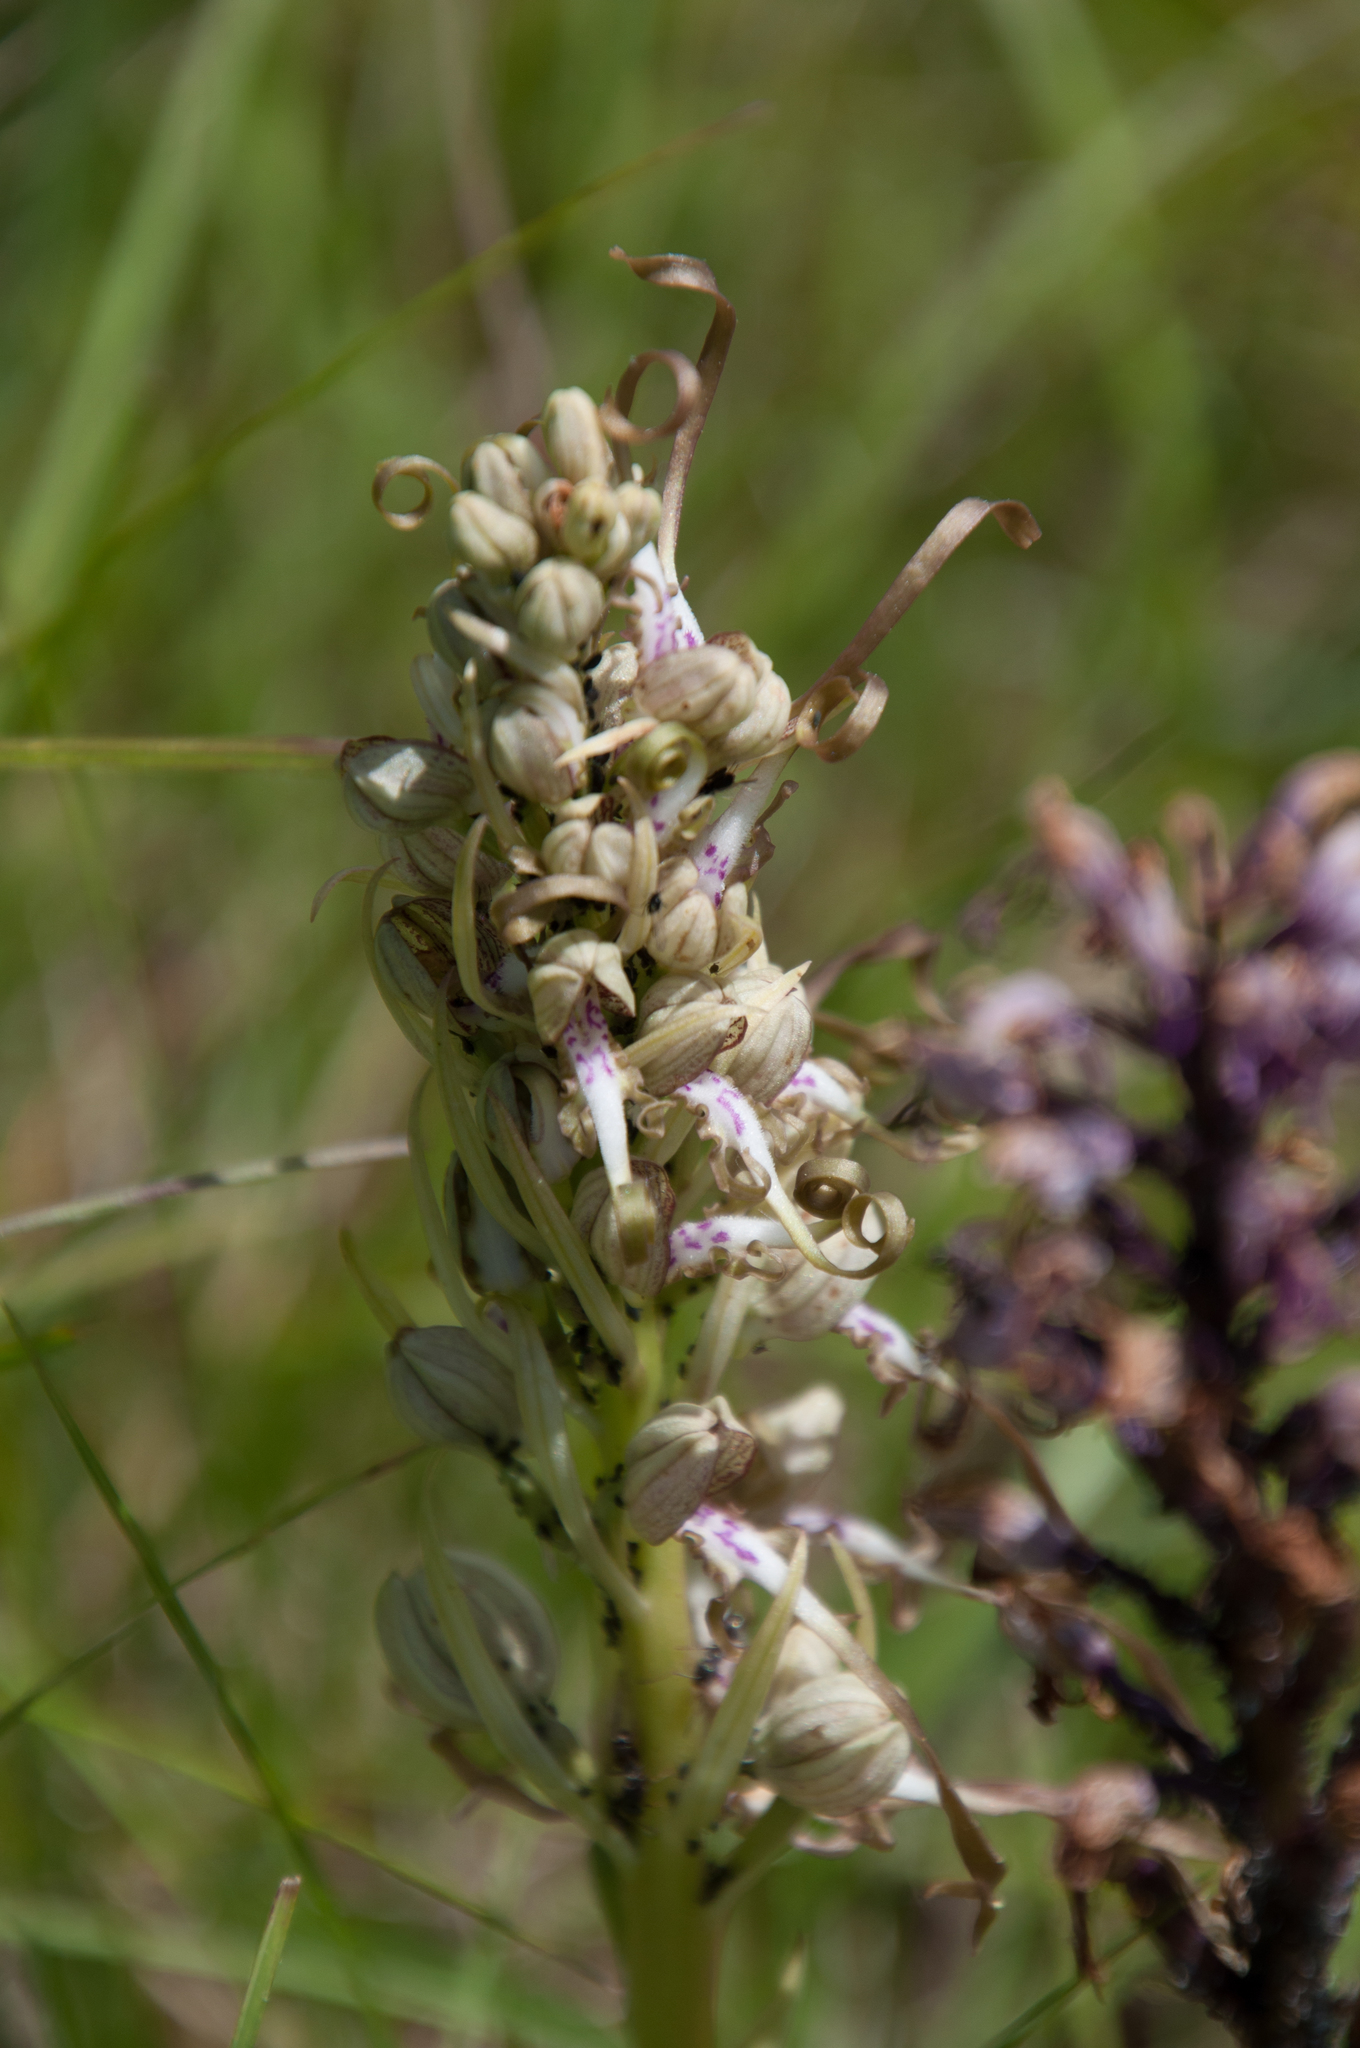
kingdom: Plantae
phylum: Tracheophyta
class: Liliopsida
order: Asparagales
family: Orchidaceae
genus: Himantoglossum
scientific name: Himantoglossum hircinum
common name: Lizard orchid
